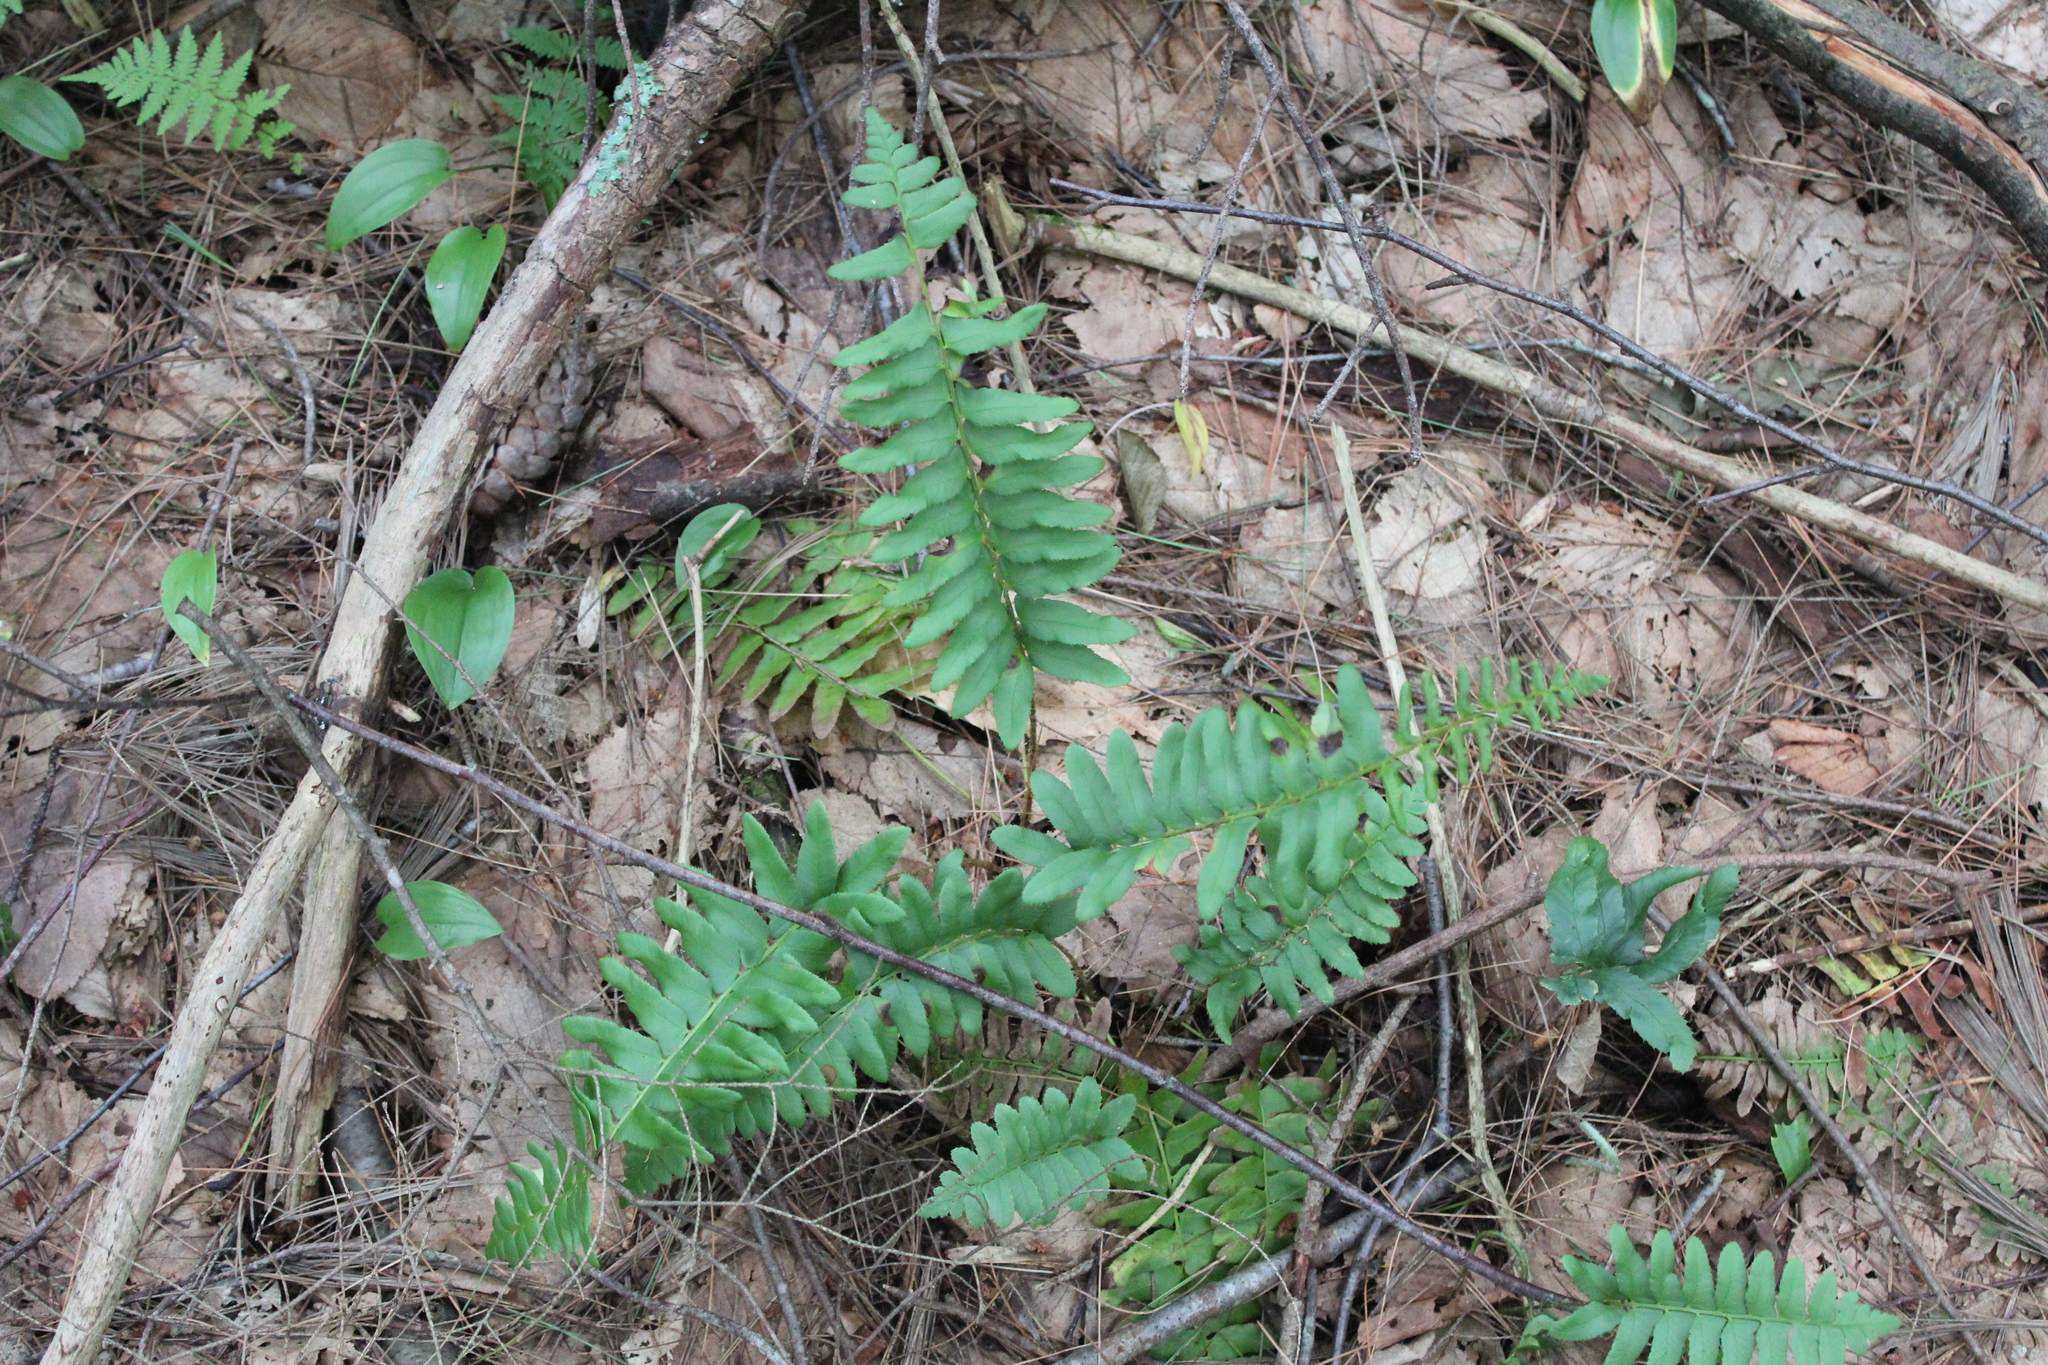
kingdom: Plantae
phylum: Tracheophyta
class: Polypodiopsida
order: Polypodiales
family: Dryopteridaceae
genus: Polystichum
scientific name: Polystichum acrostichoides
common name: Christmas fern
